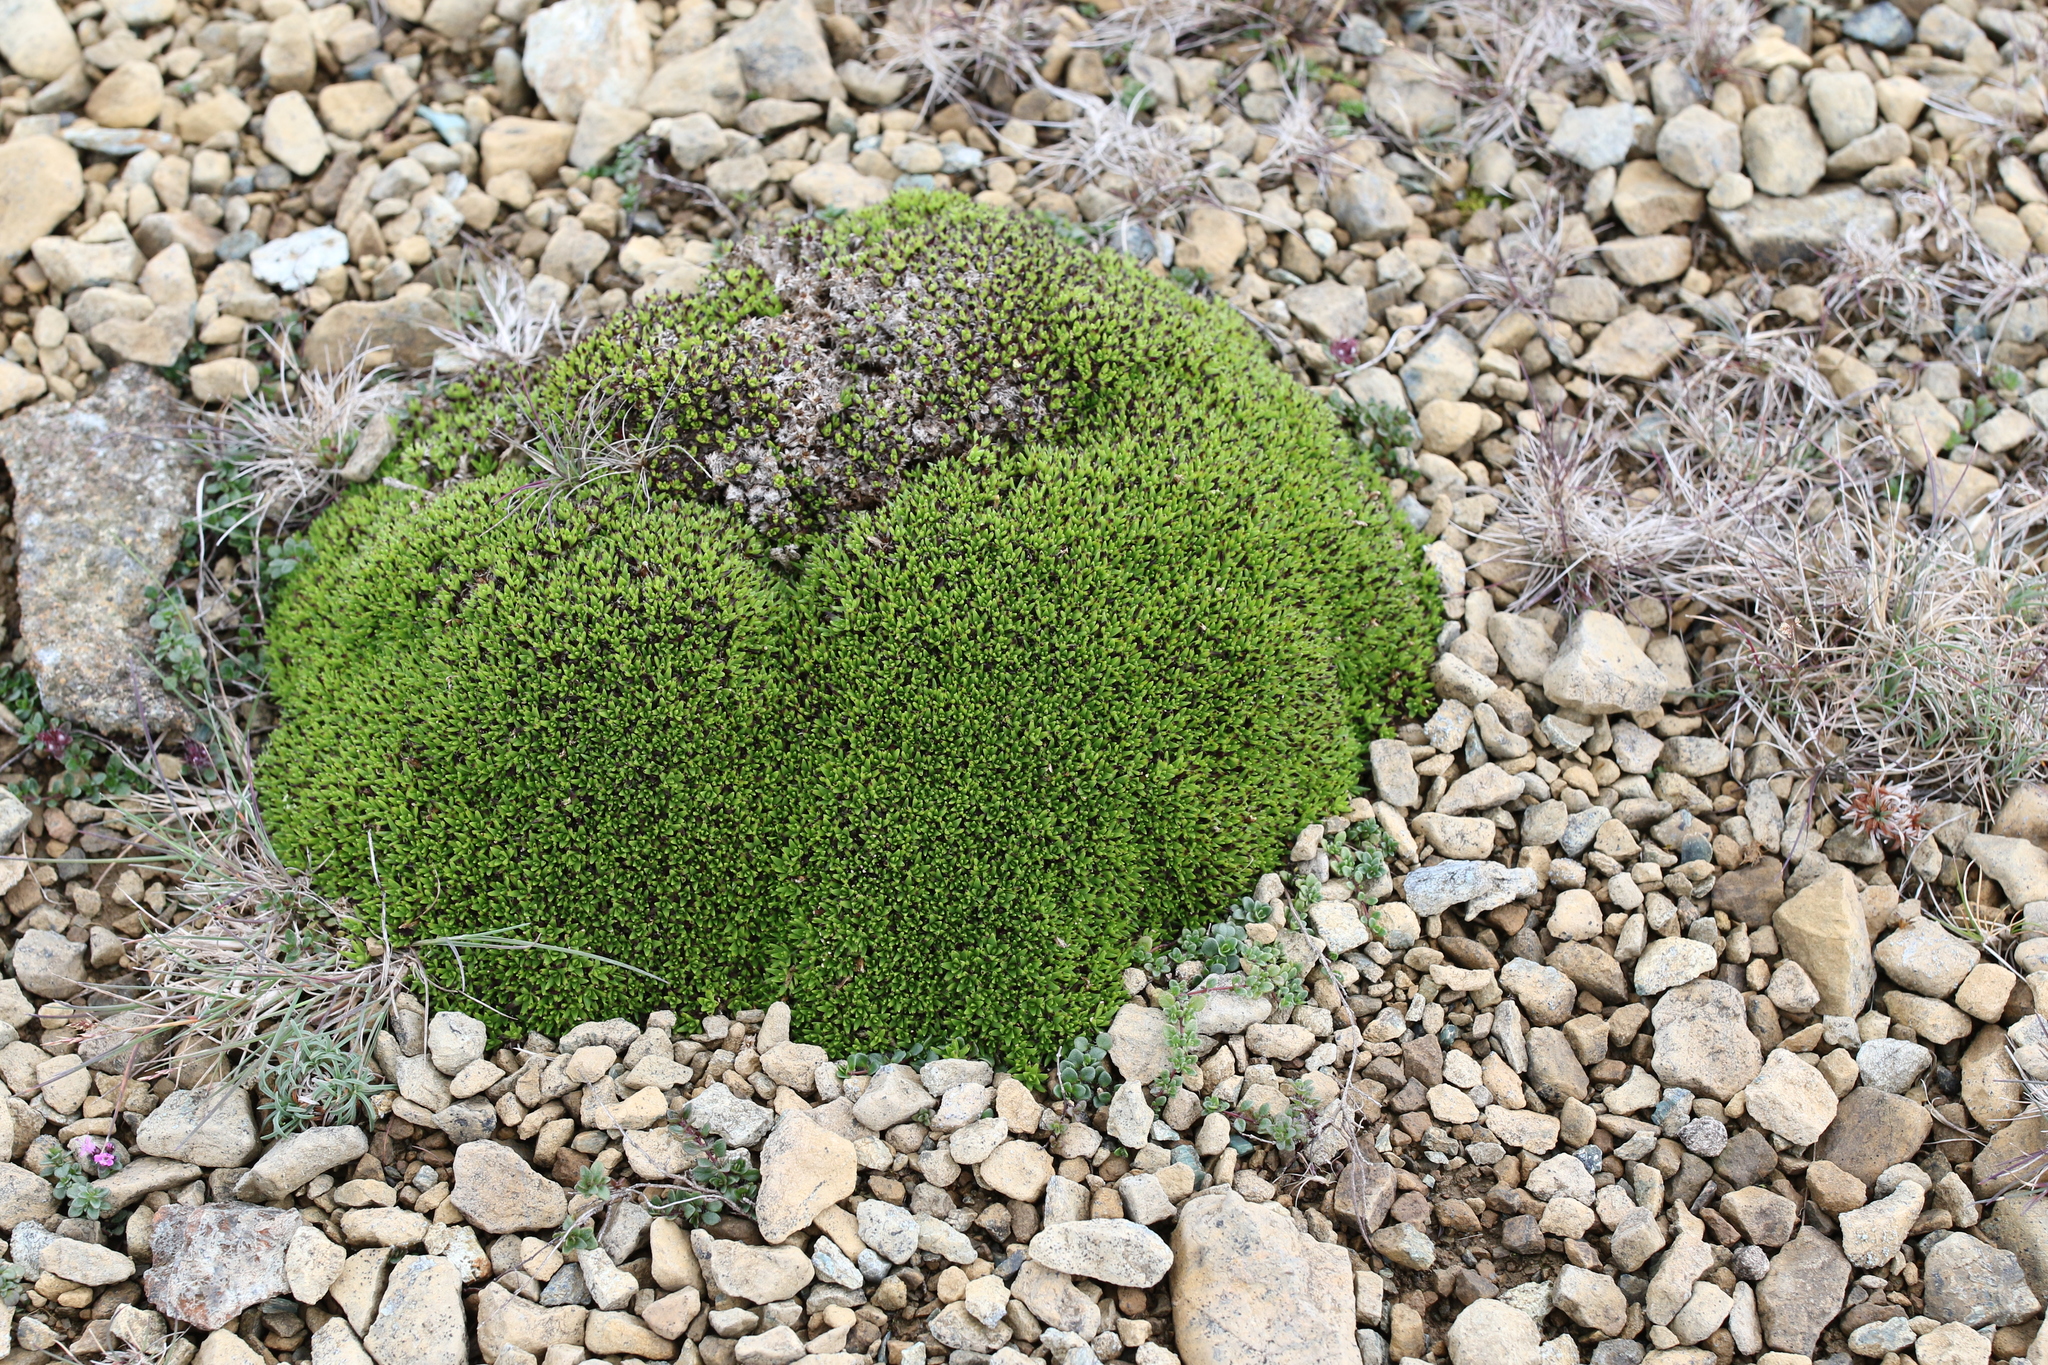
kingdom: Plantae
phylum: Tracheophyta
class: Magnoliopsida
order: Caryophyllales
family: Caryophyllaceae
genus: Silene
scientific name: Silene acaulis
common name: Moss campion
